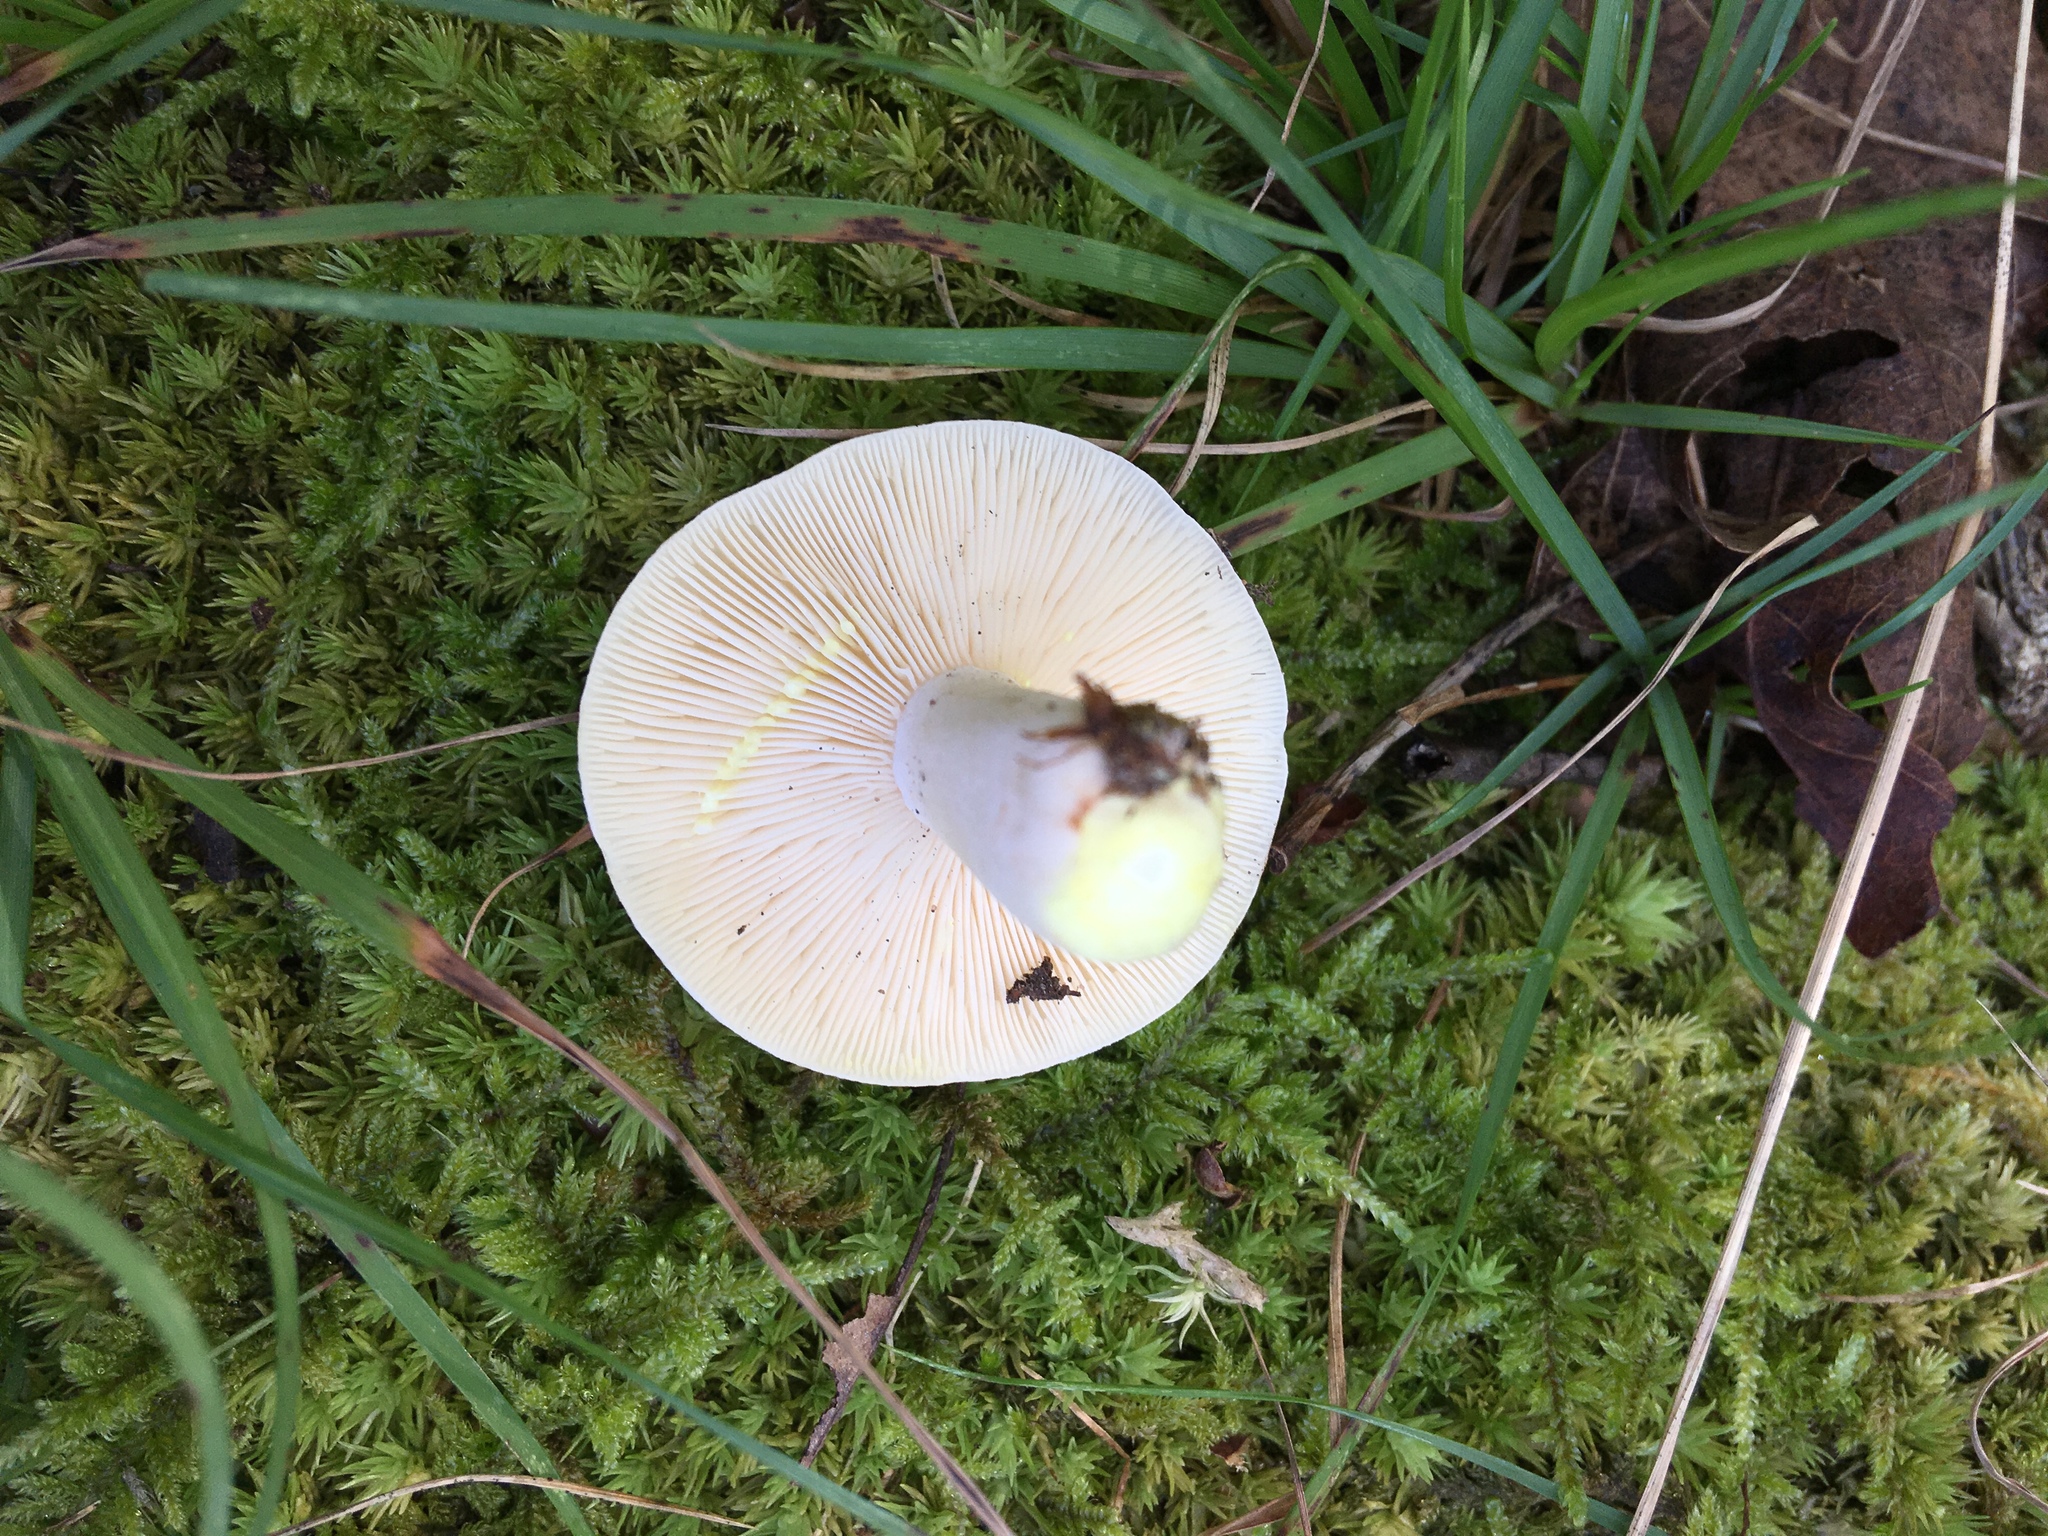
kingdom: Fungi
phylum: Basidiomycota
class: Agaricomycetes
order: Russulales
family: Russulaceae
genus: Lactarius
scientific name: Lactarius chrysorrheus
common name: Yellowdrop milkcap
